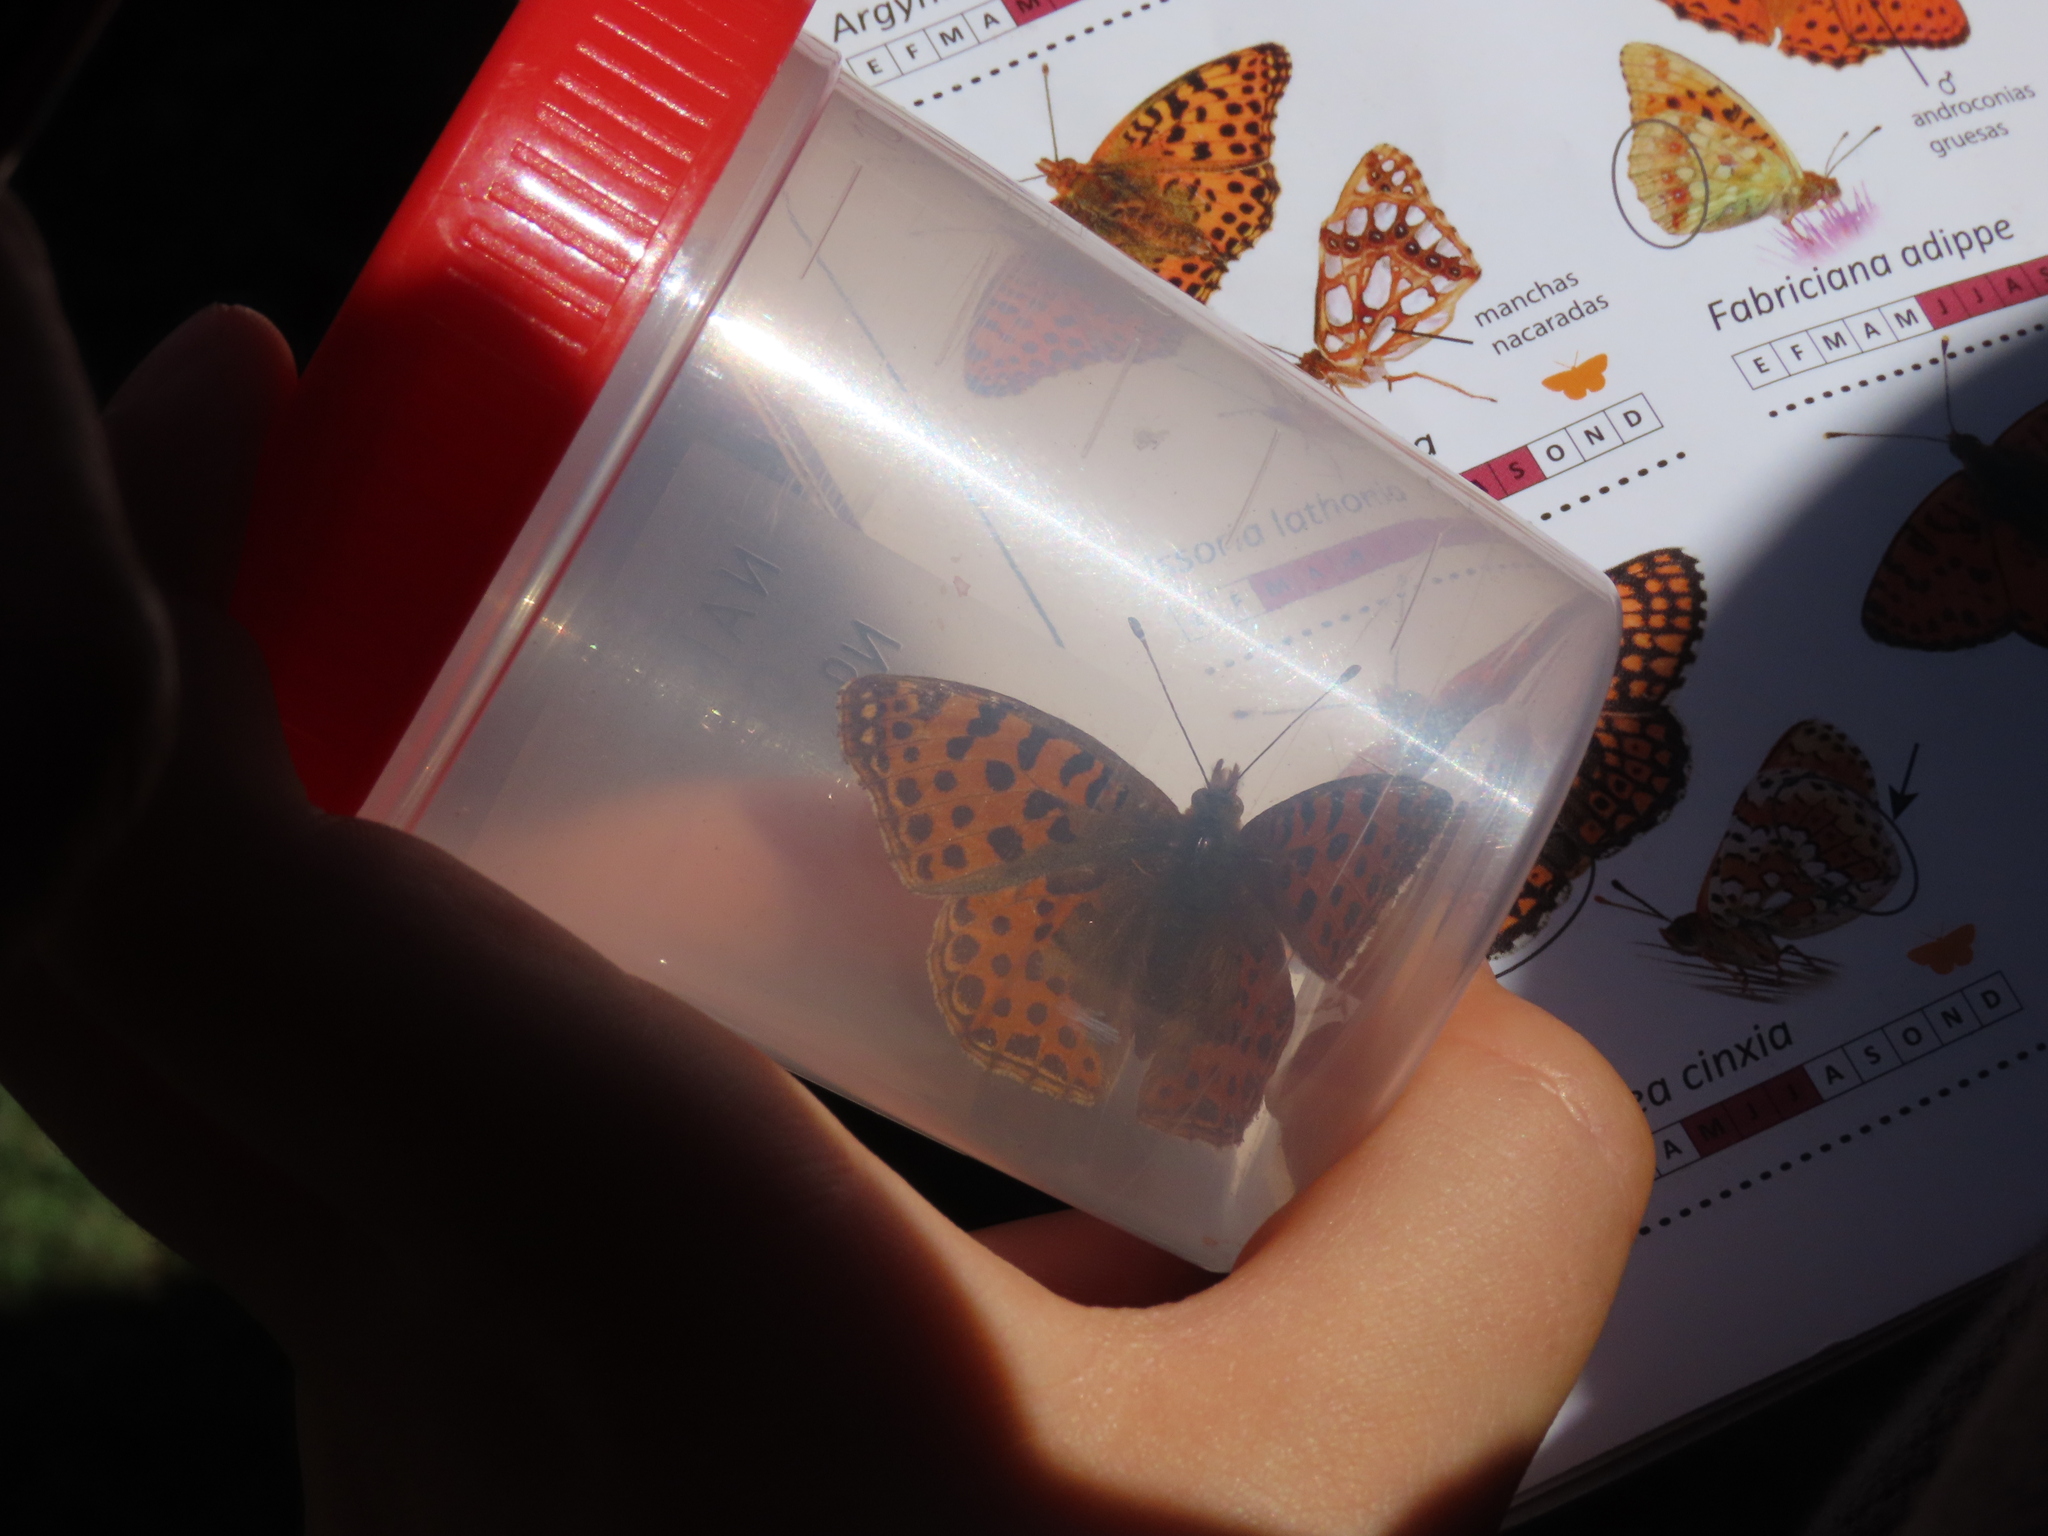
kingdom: Animalia
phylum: Arthropoda
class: Insecta
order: Lepidoptera
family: Nymphalidae
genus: Issoria
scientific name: Issoria lathonia
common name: Queen of spain fritillary
